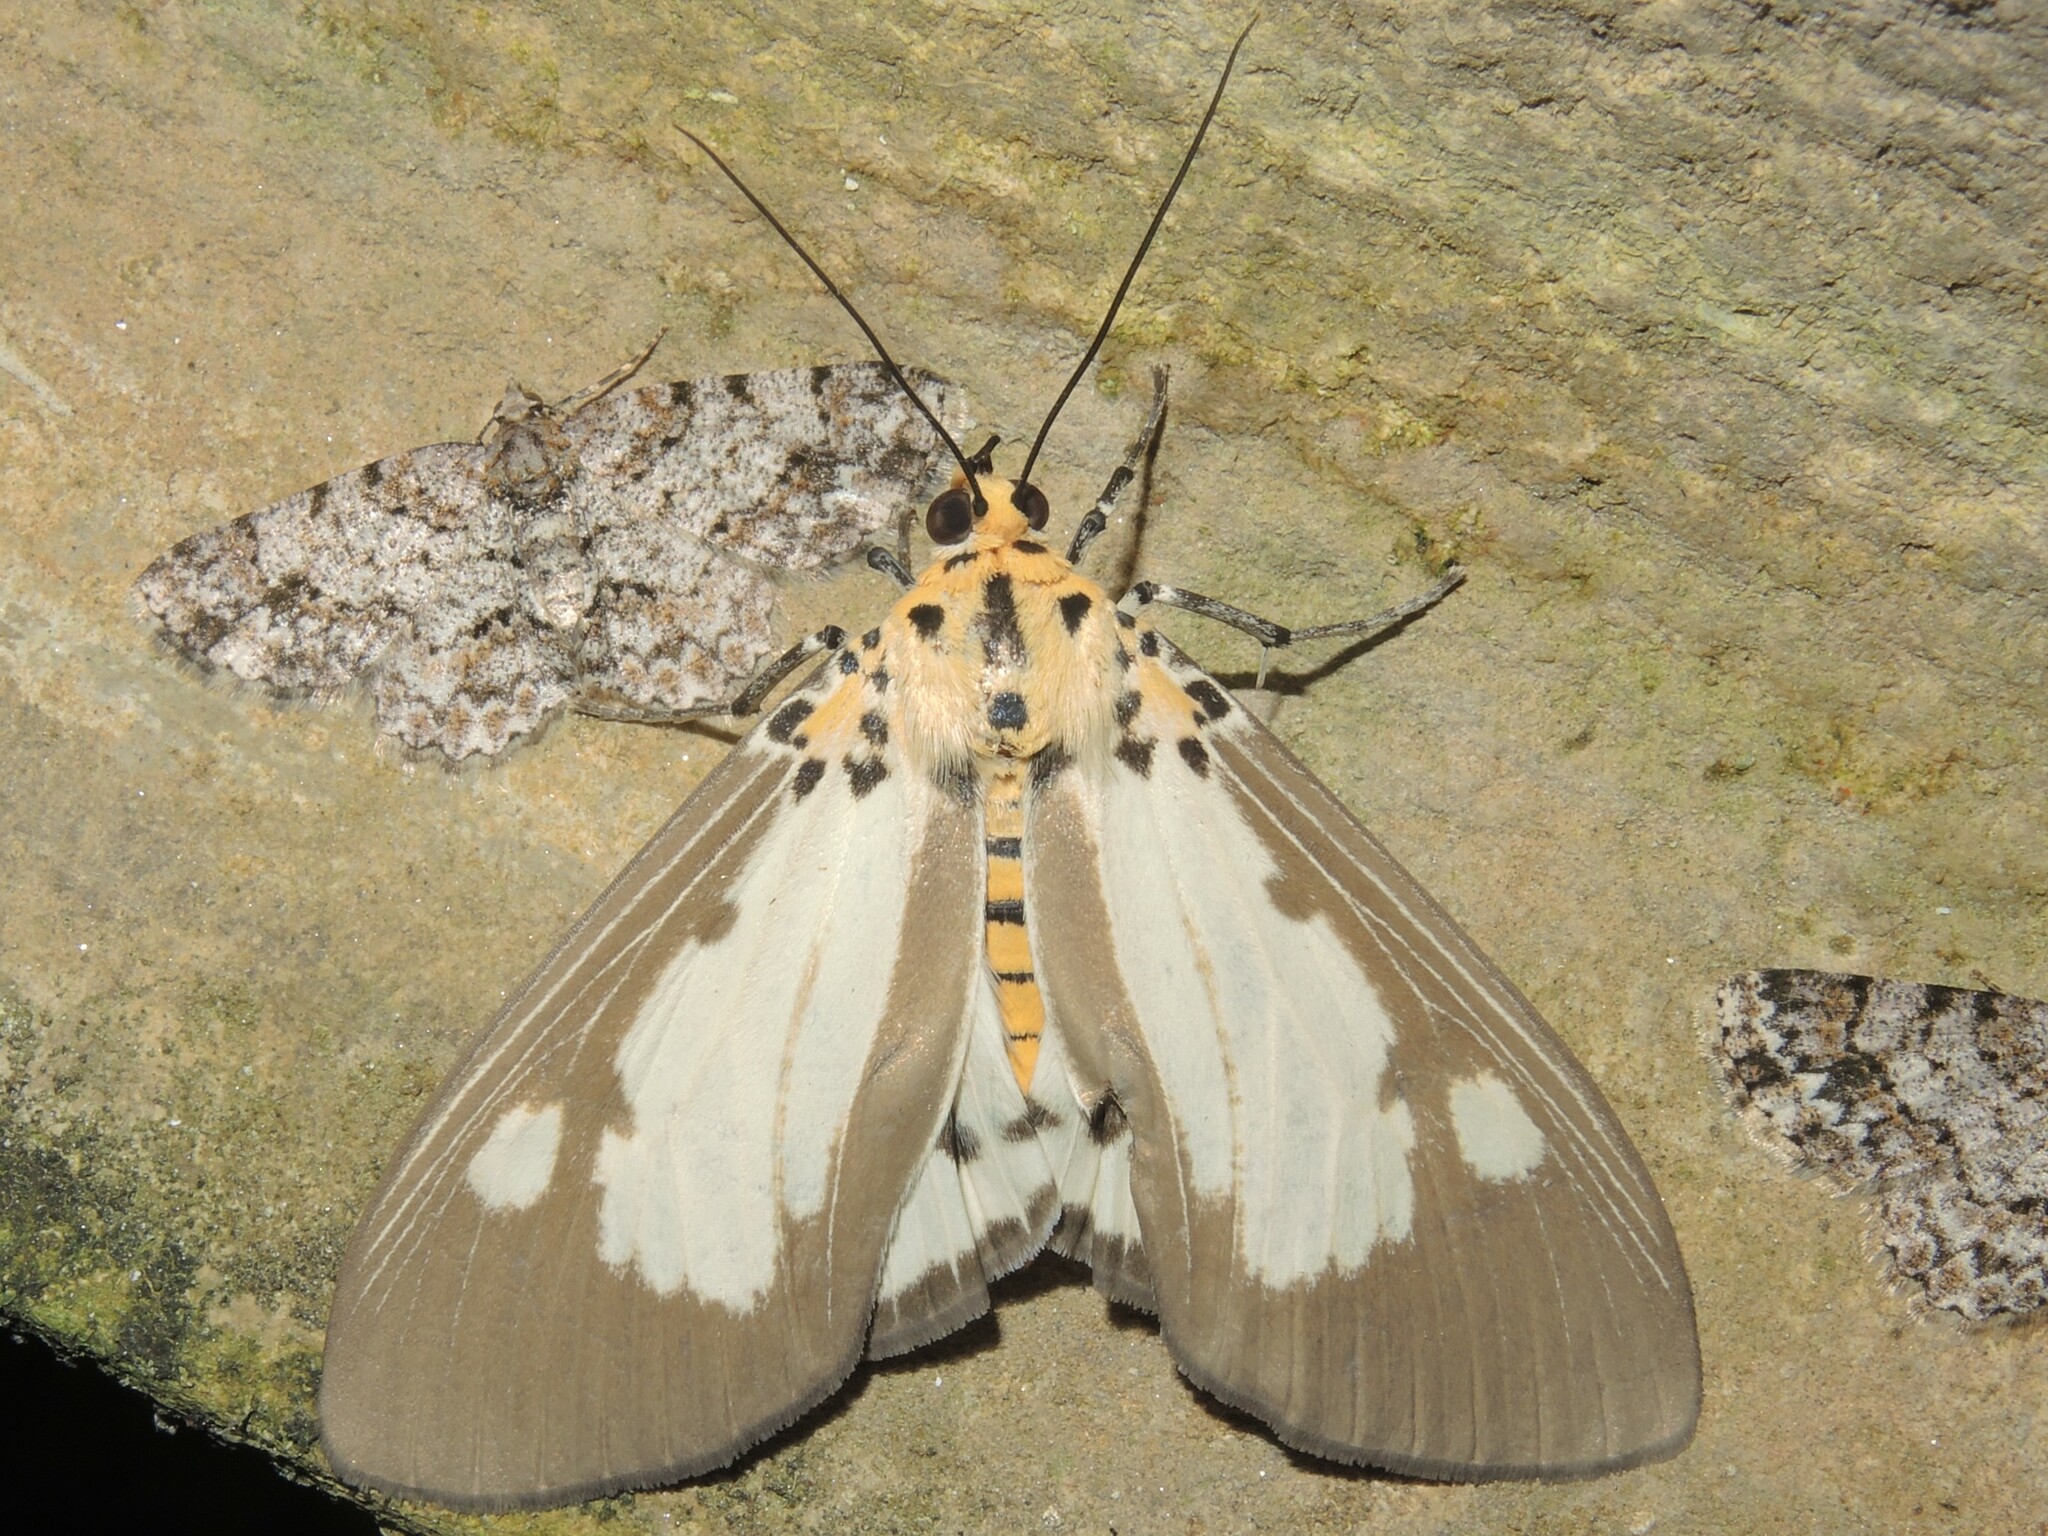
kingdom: Animalia
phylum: Arthropoda
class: Insecta
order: Lepidoptera
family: Erebidae
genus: Asota
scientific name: Asota plana
